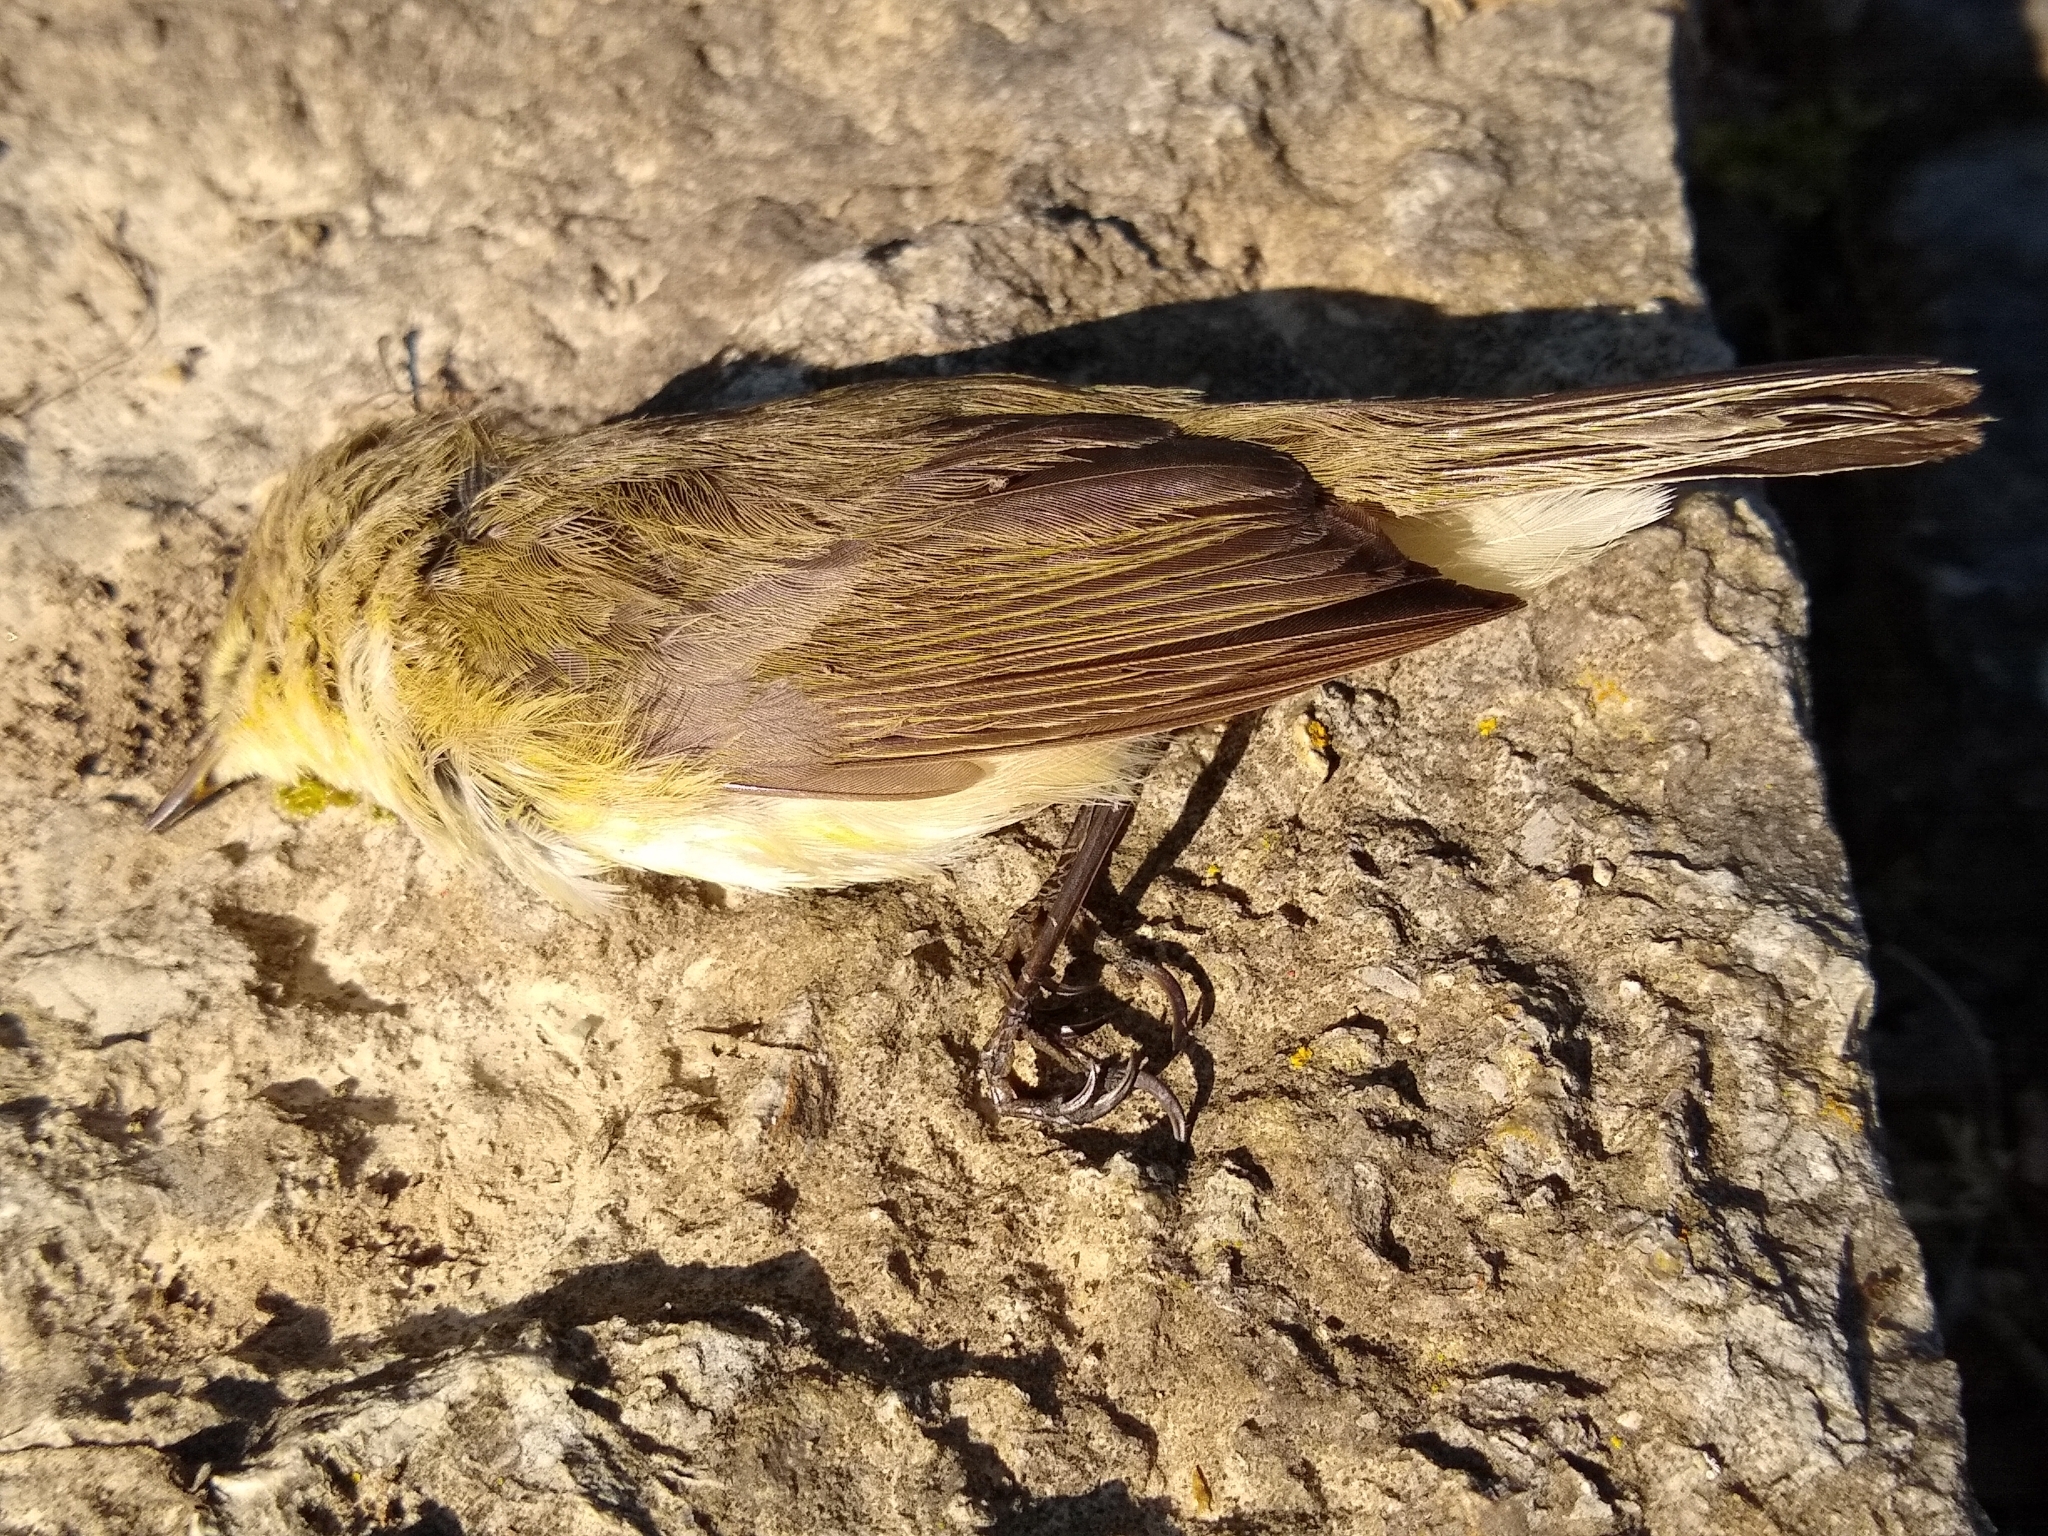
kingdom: Animalia
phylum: Chordata
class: Aves
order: Passeriformes
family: Phylloscopidae
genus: Phylloscopus
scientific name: Phylloscopus collybita
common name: Common chiffchaff
